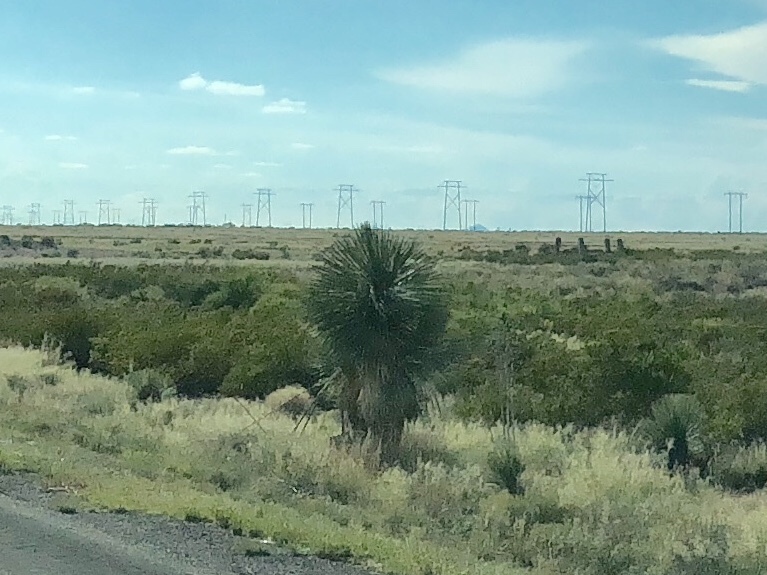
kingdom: Plantae
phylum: Tracheophyta
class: Liliopsida
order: Asparagales
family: Asparagaceae
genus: Yucca
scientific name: Yucca elata
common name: Palmella
